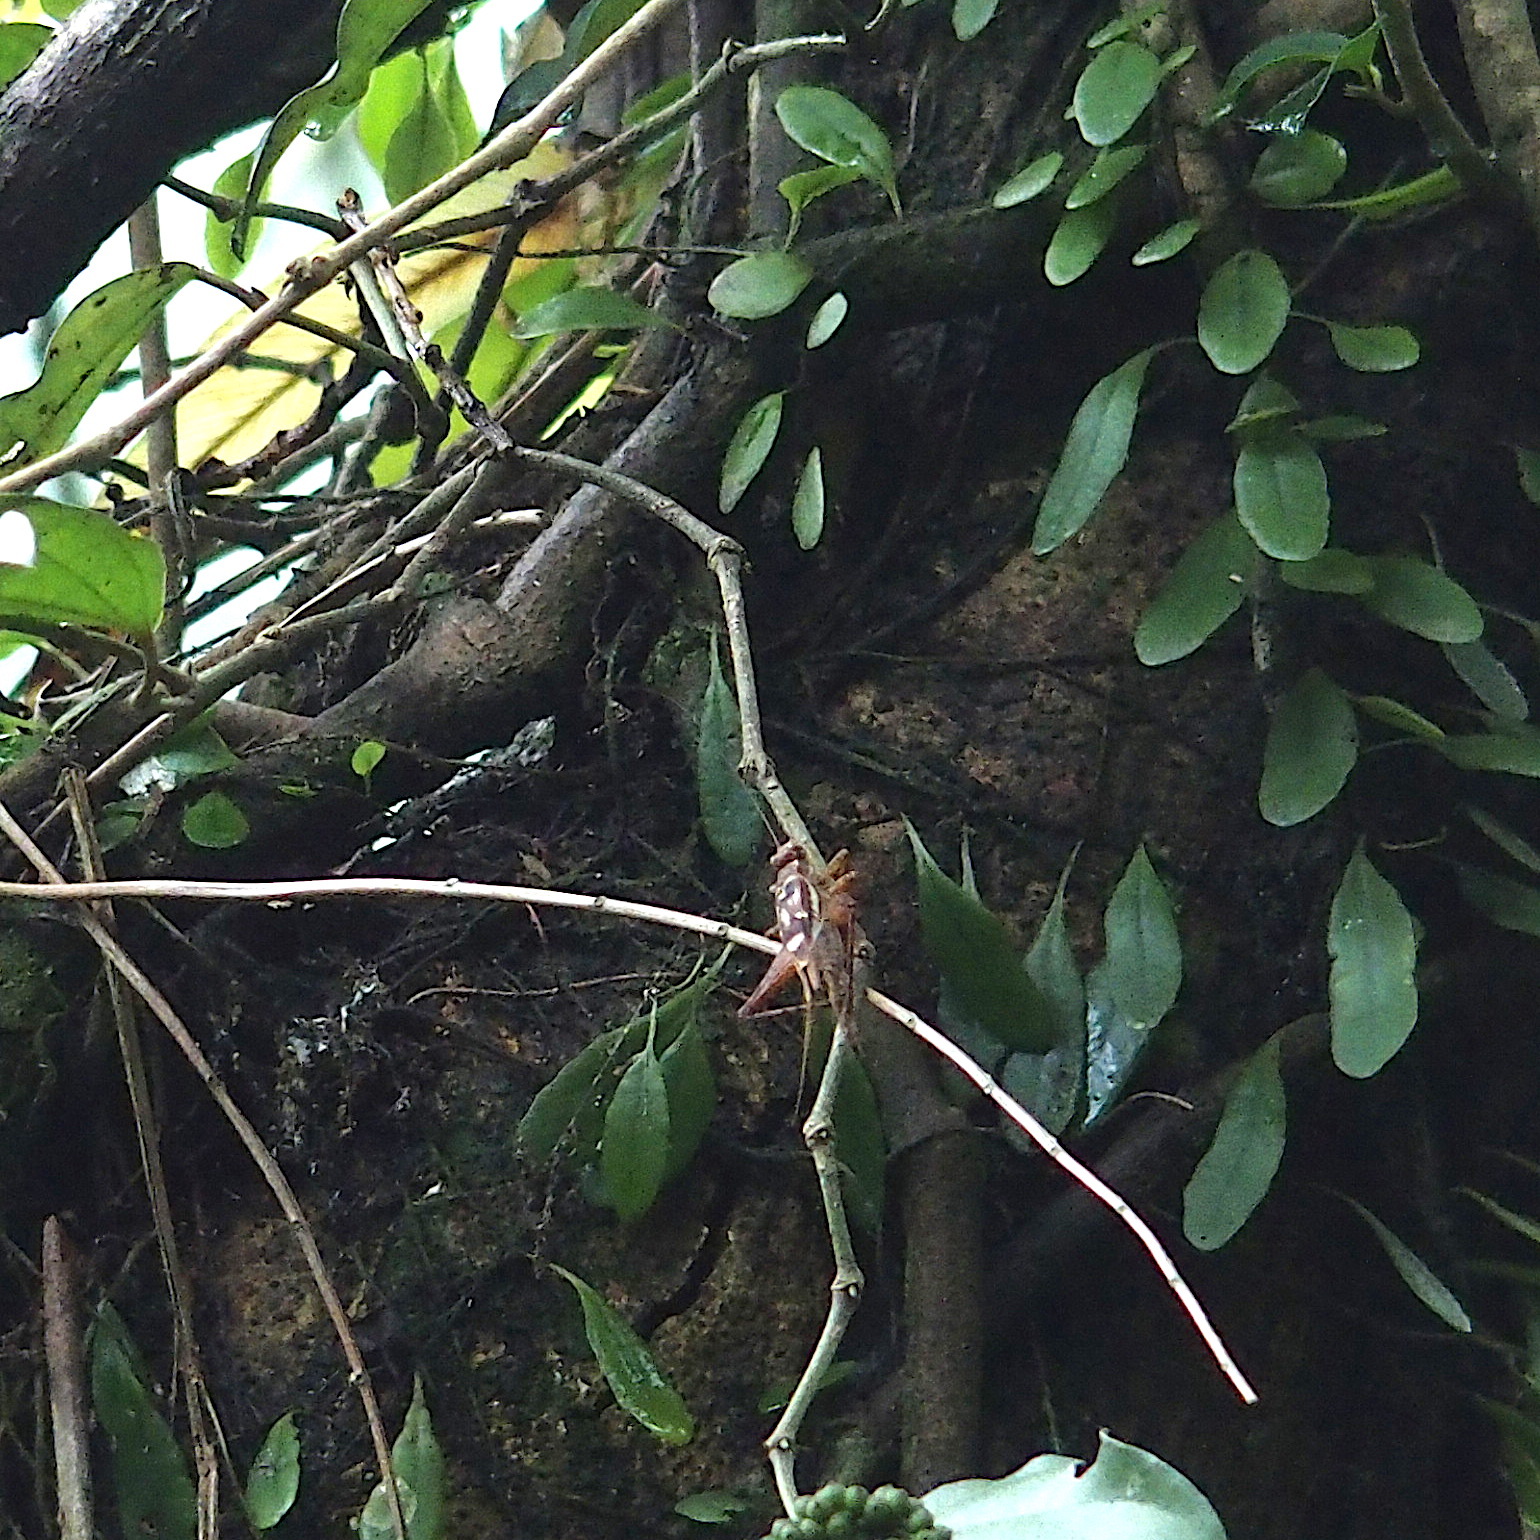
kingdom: Animalia
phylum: Arthropoda
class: Insecta
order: Orthoptera
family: Gryllidae
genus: Cardiodactylus
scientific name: Cardiodactylus guttulus
